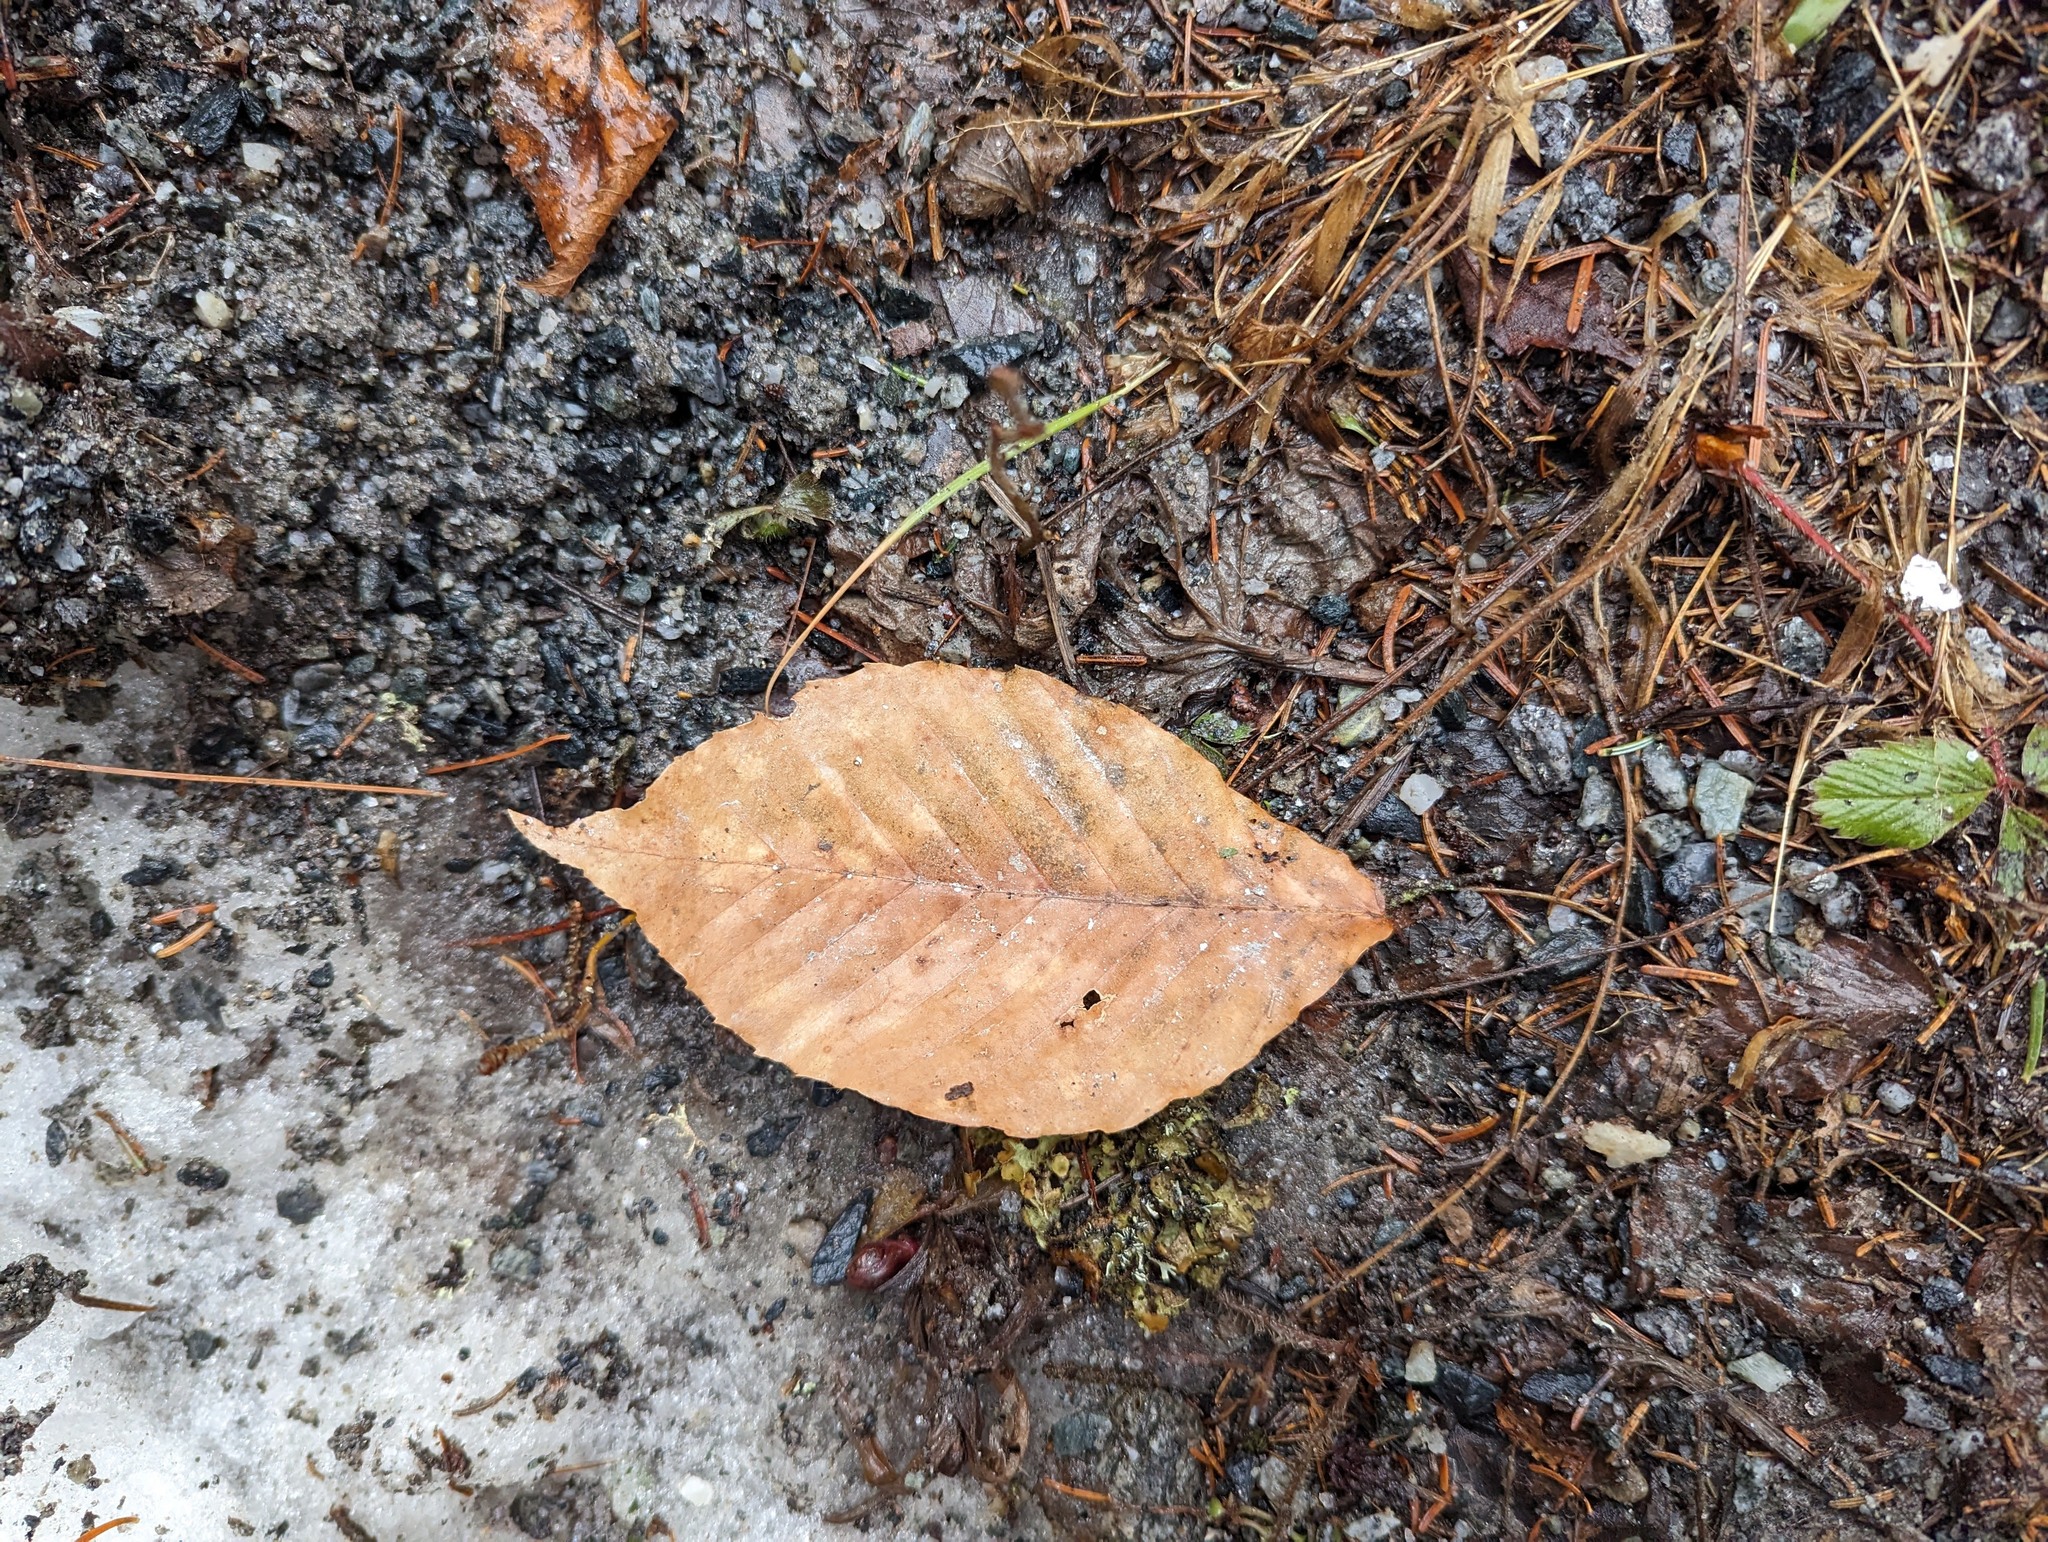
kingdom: Plantae
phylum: Tracheophyta
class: Magnoliopsida
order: Fagales
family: Fagaceae
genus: Fagus
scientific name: Fagus grandifolia
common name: American beech
